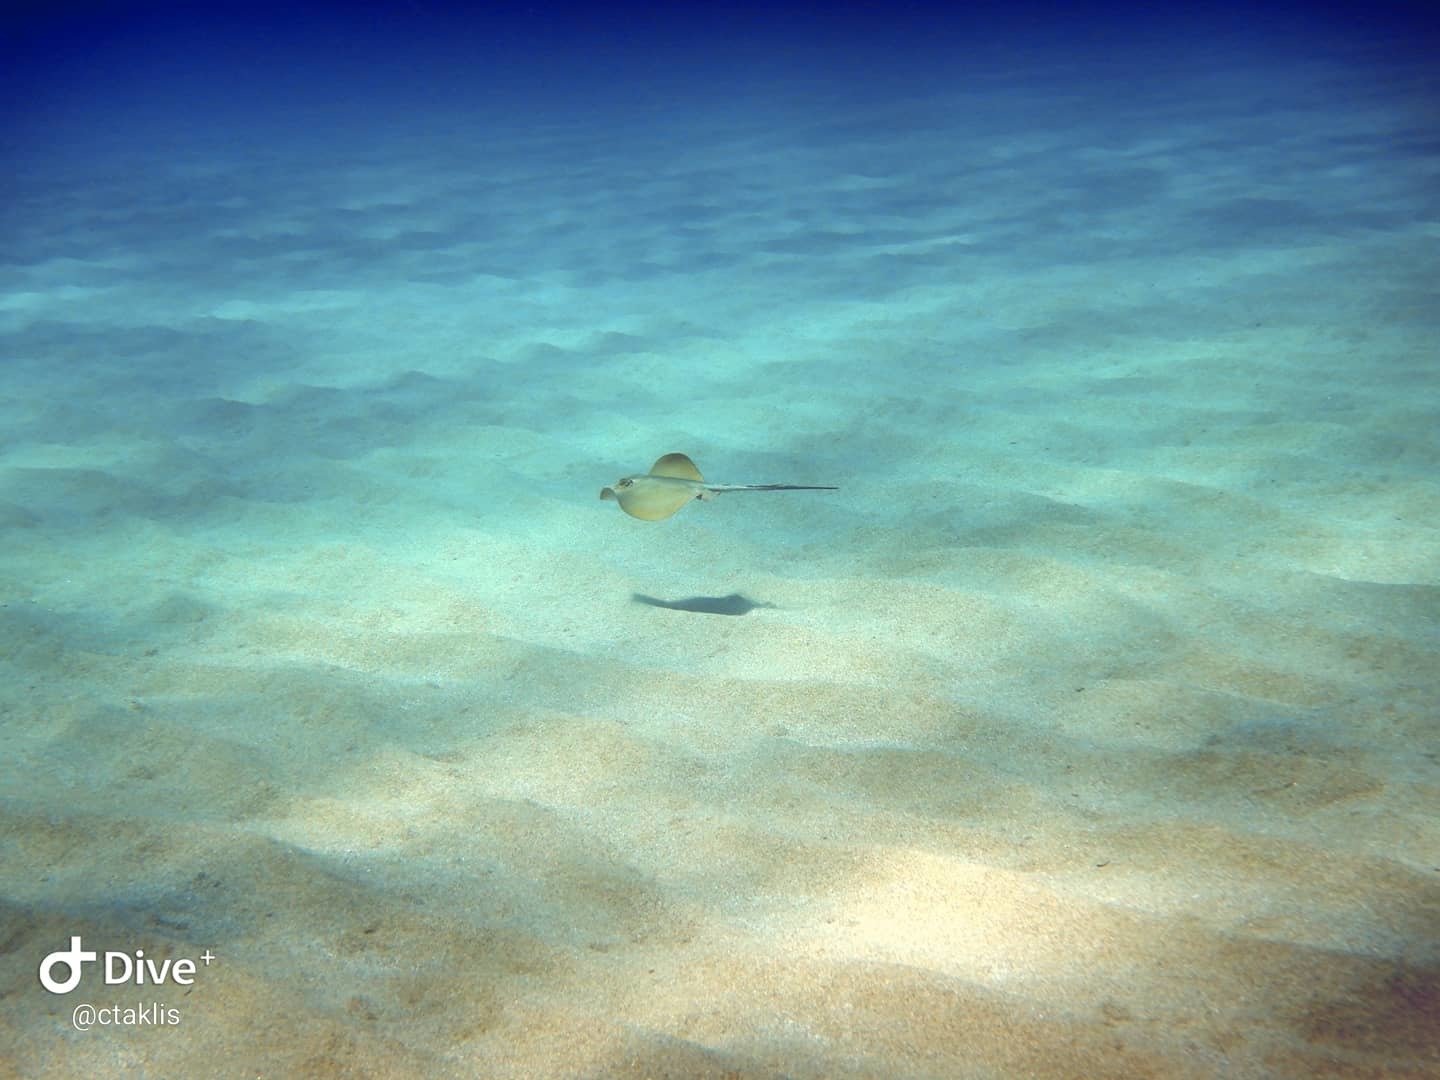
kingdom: Animalia
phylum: Chordata
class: Elasmobranchii
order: Myliobatiformes
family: Dasyatidae
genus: Dasyatis
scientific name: Dasyatis pastinaca
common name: Common stingray
